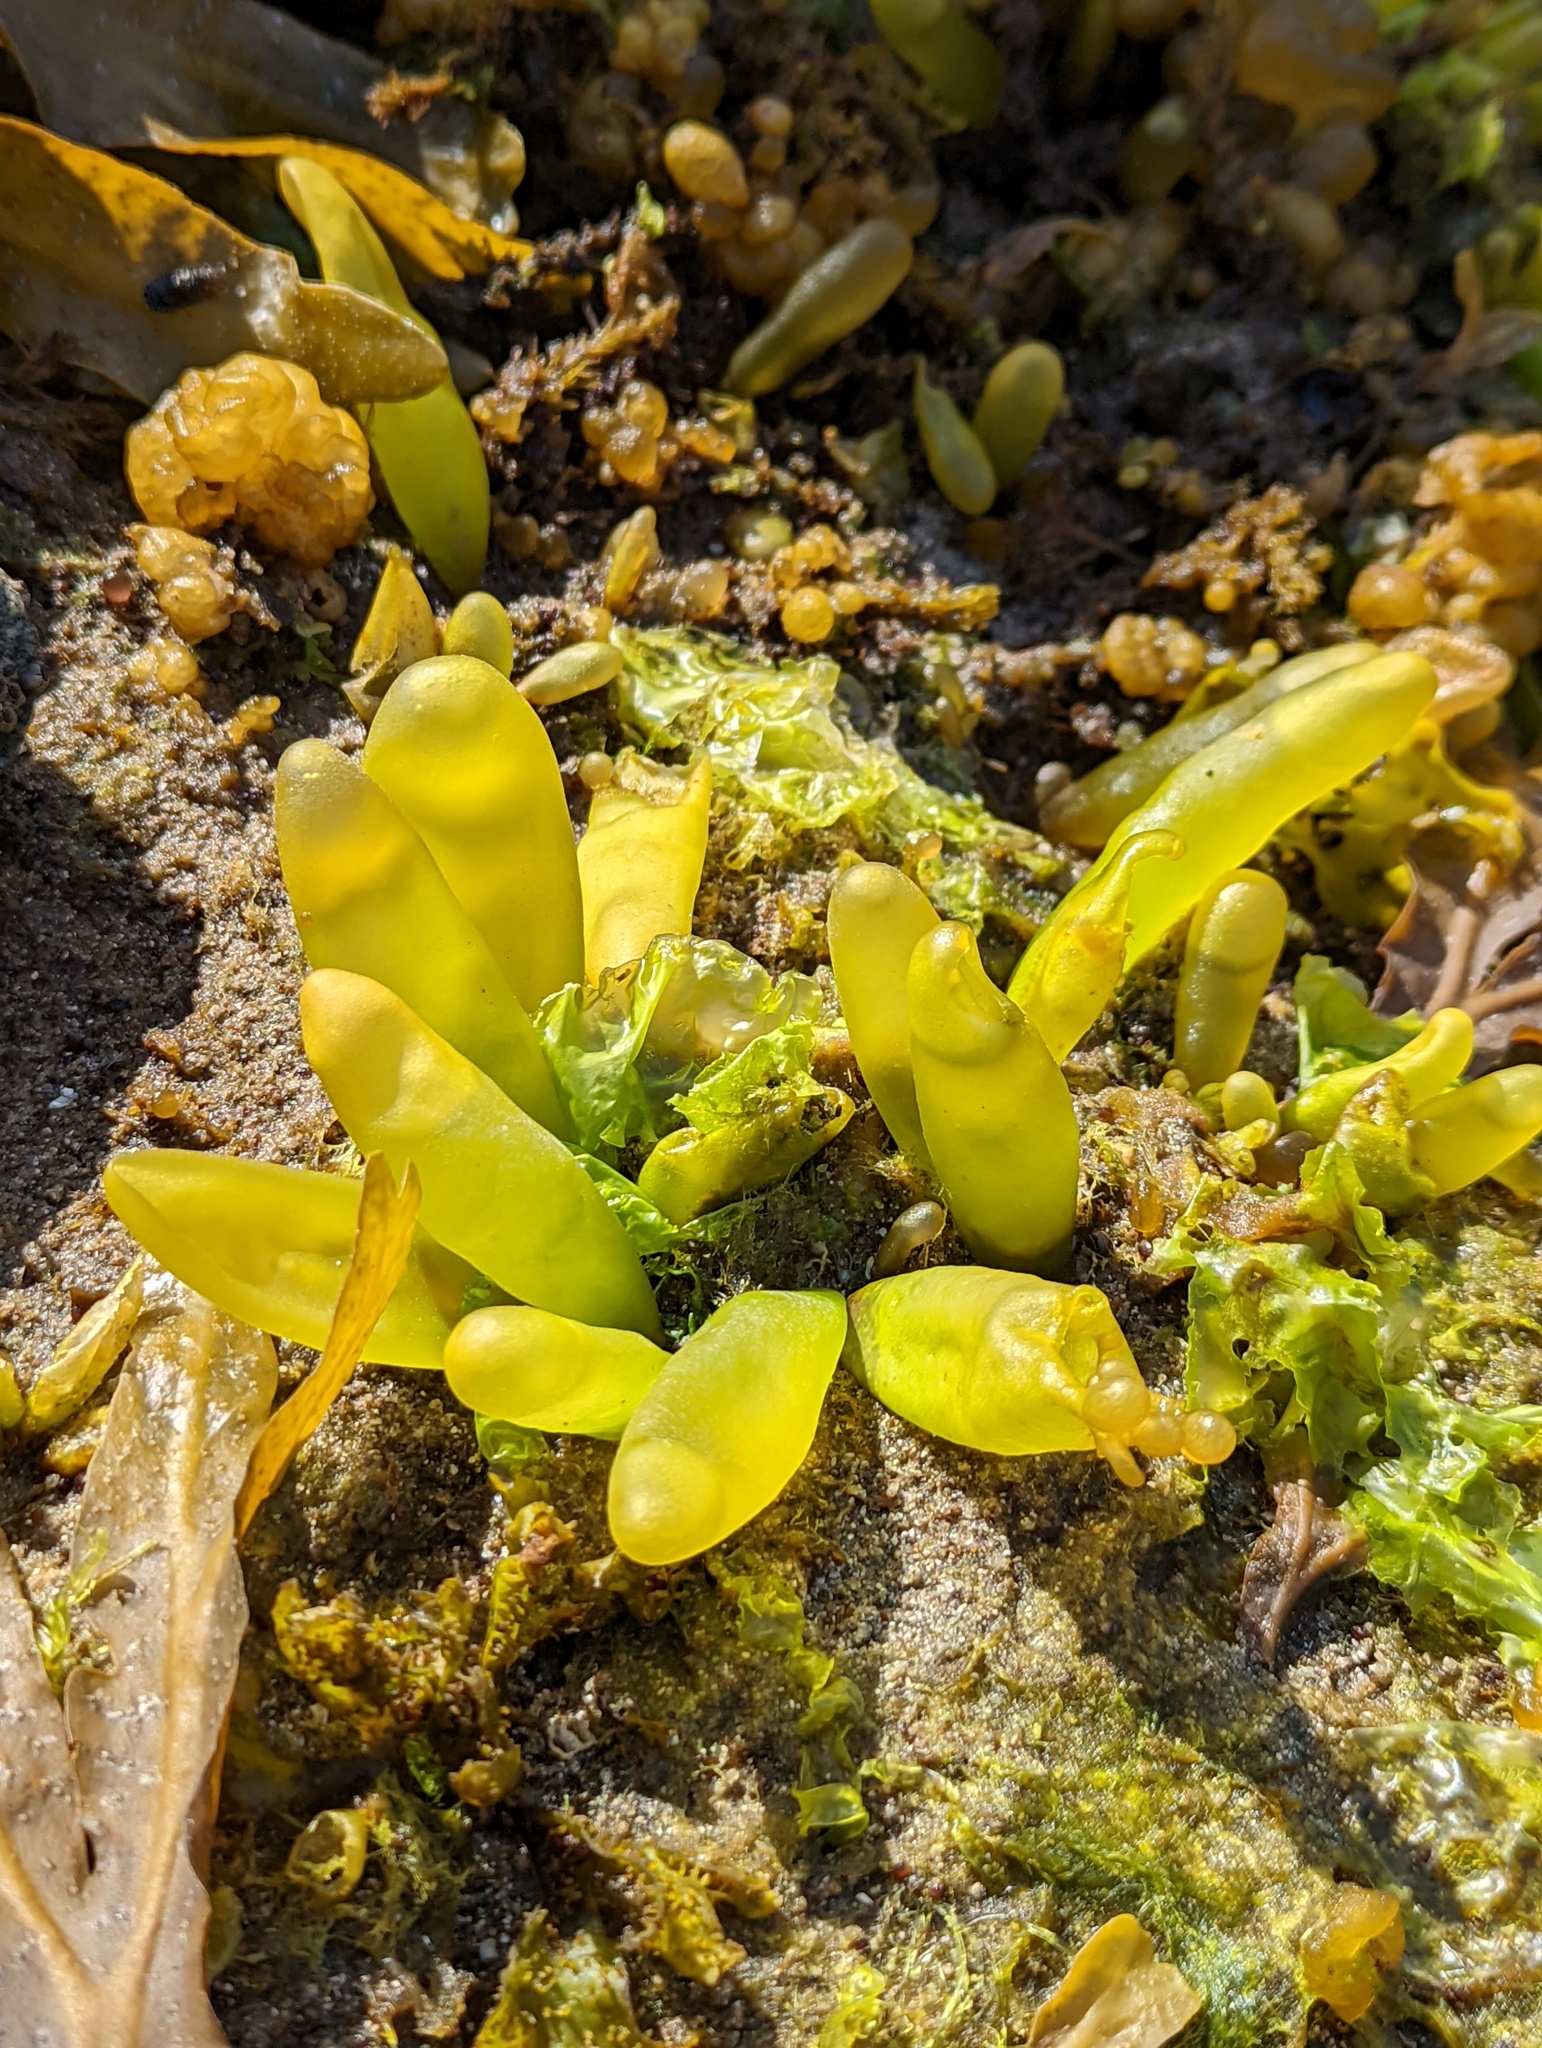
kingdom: Plantae
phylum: Rhodophyta
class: Florideophyceae
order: Palmariales
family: Palmariaceae
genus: Halosaccion
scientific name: Halosaccion glandiforme
